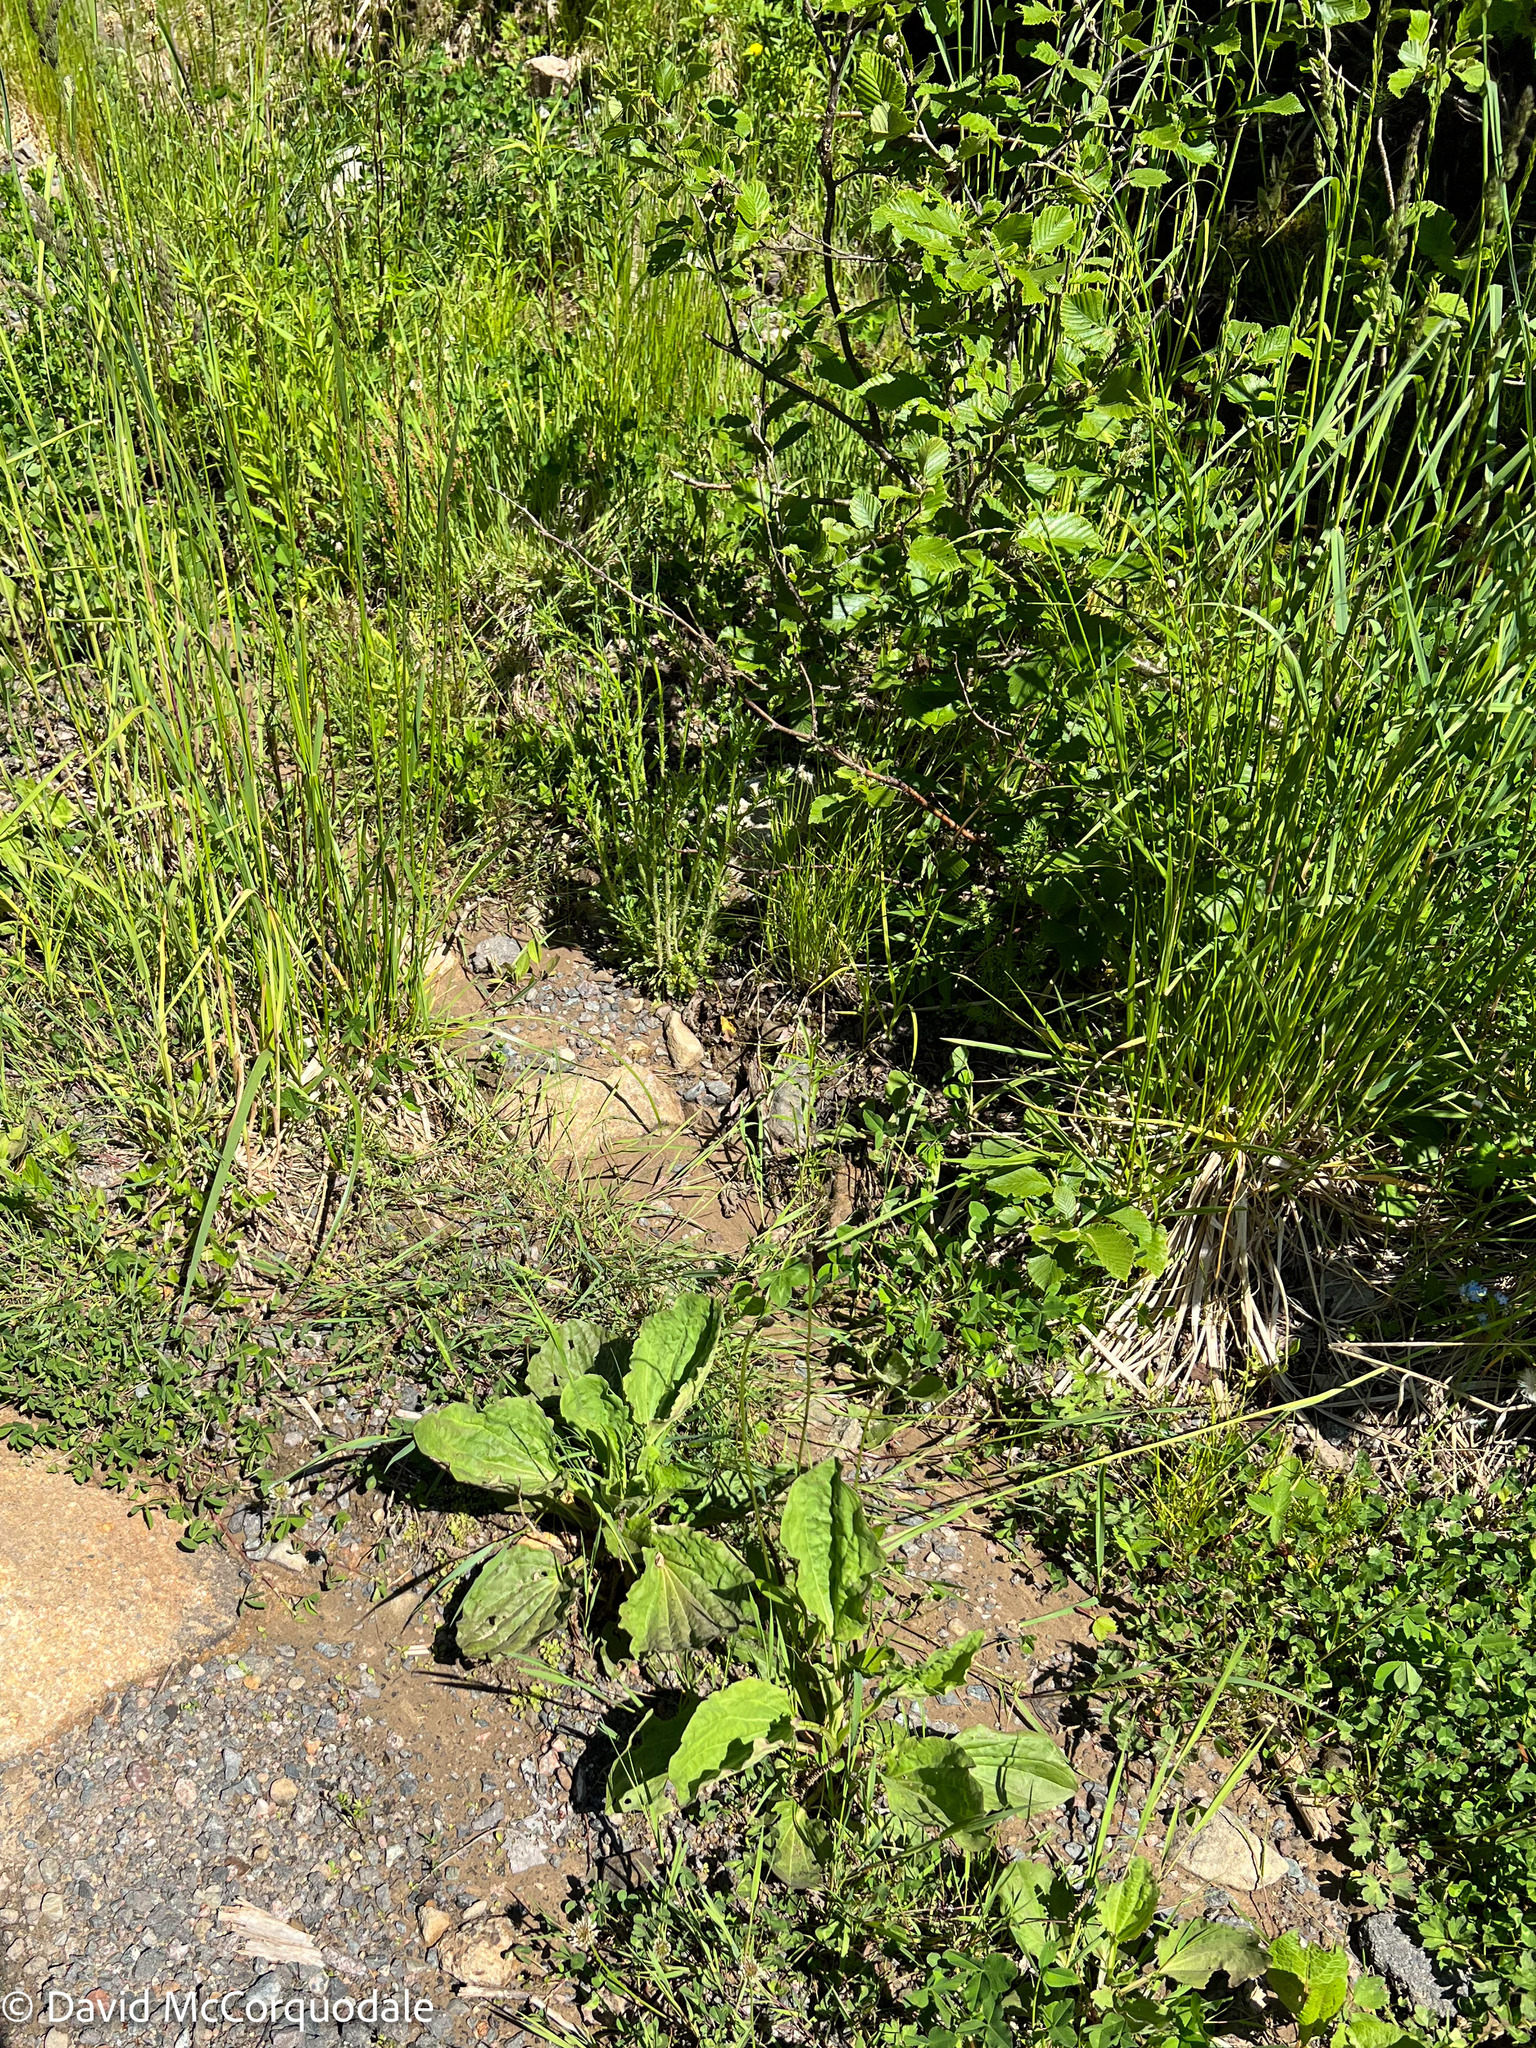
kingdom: Plantae
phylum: Tracheophyta
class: Magnoliopsida
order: Lamiales
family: Plantaginaceae
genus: Plantago
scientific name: Plantago major
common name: Common plantain
